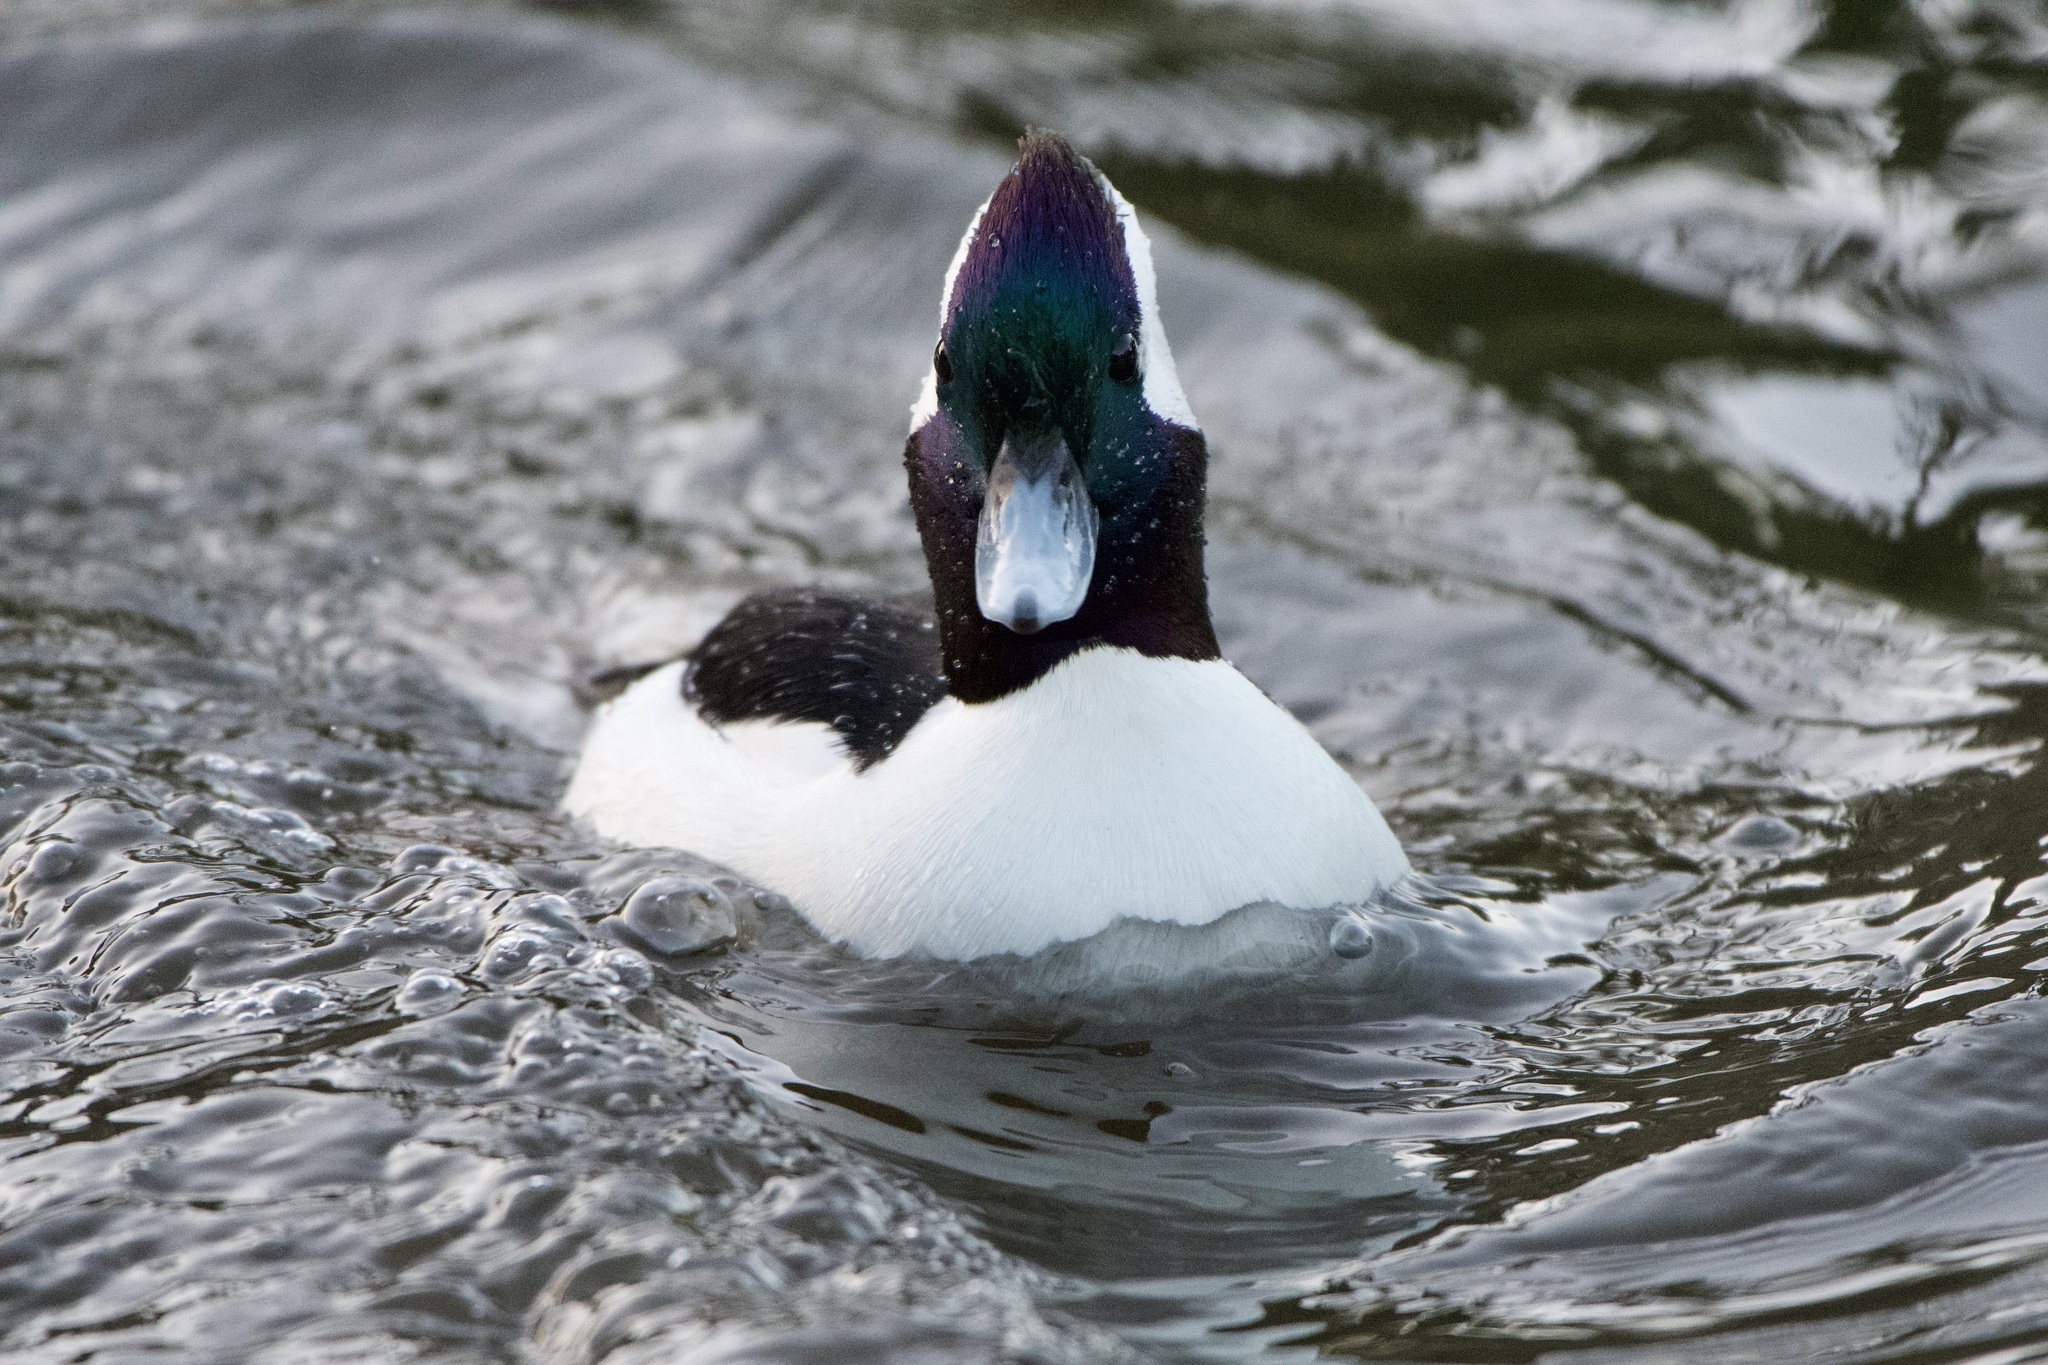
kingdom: Animalia
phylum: Chordata
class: Aves
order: Anseriformes
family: Anatidae
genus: Bucephala
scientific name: Bucephala albeola
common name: Bufflehead
